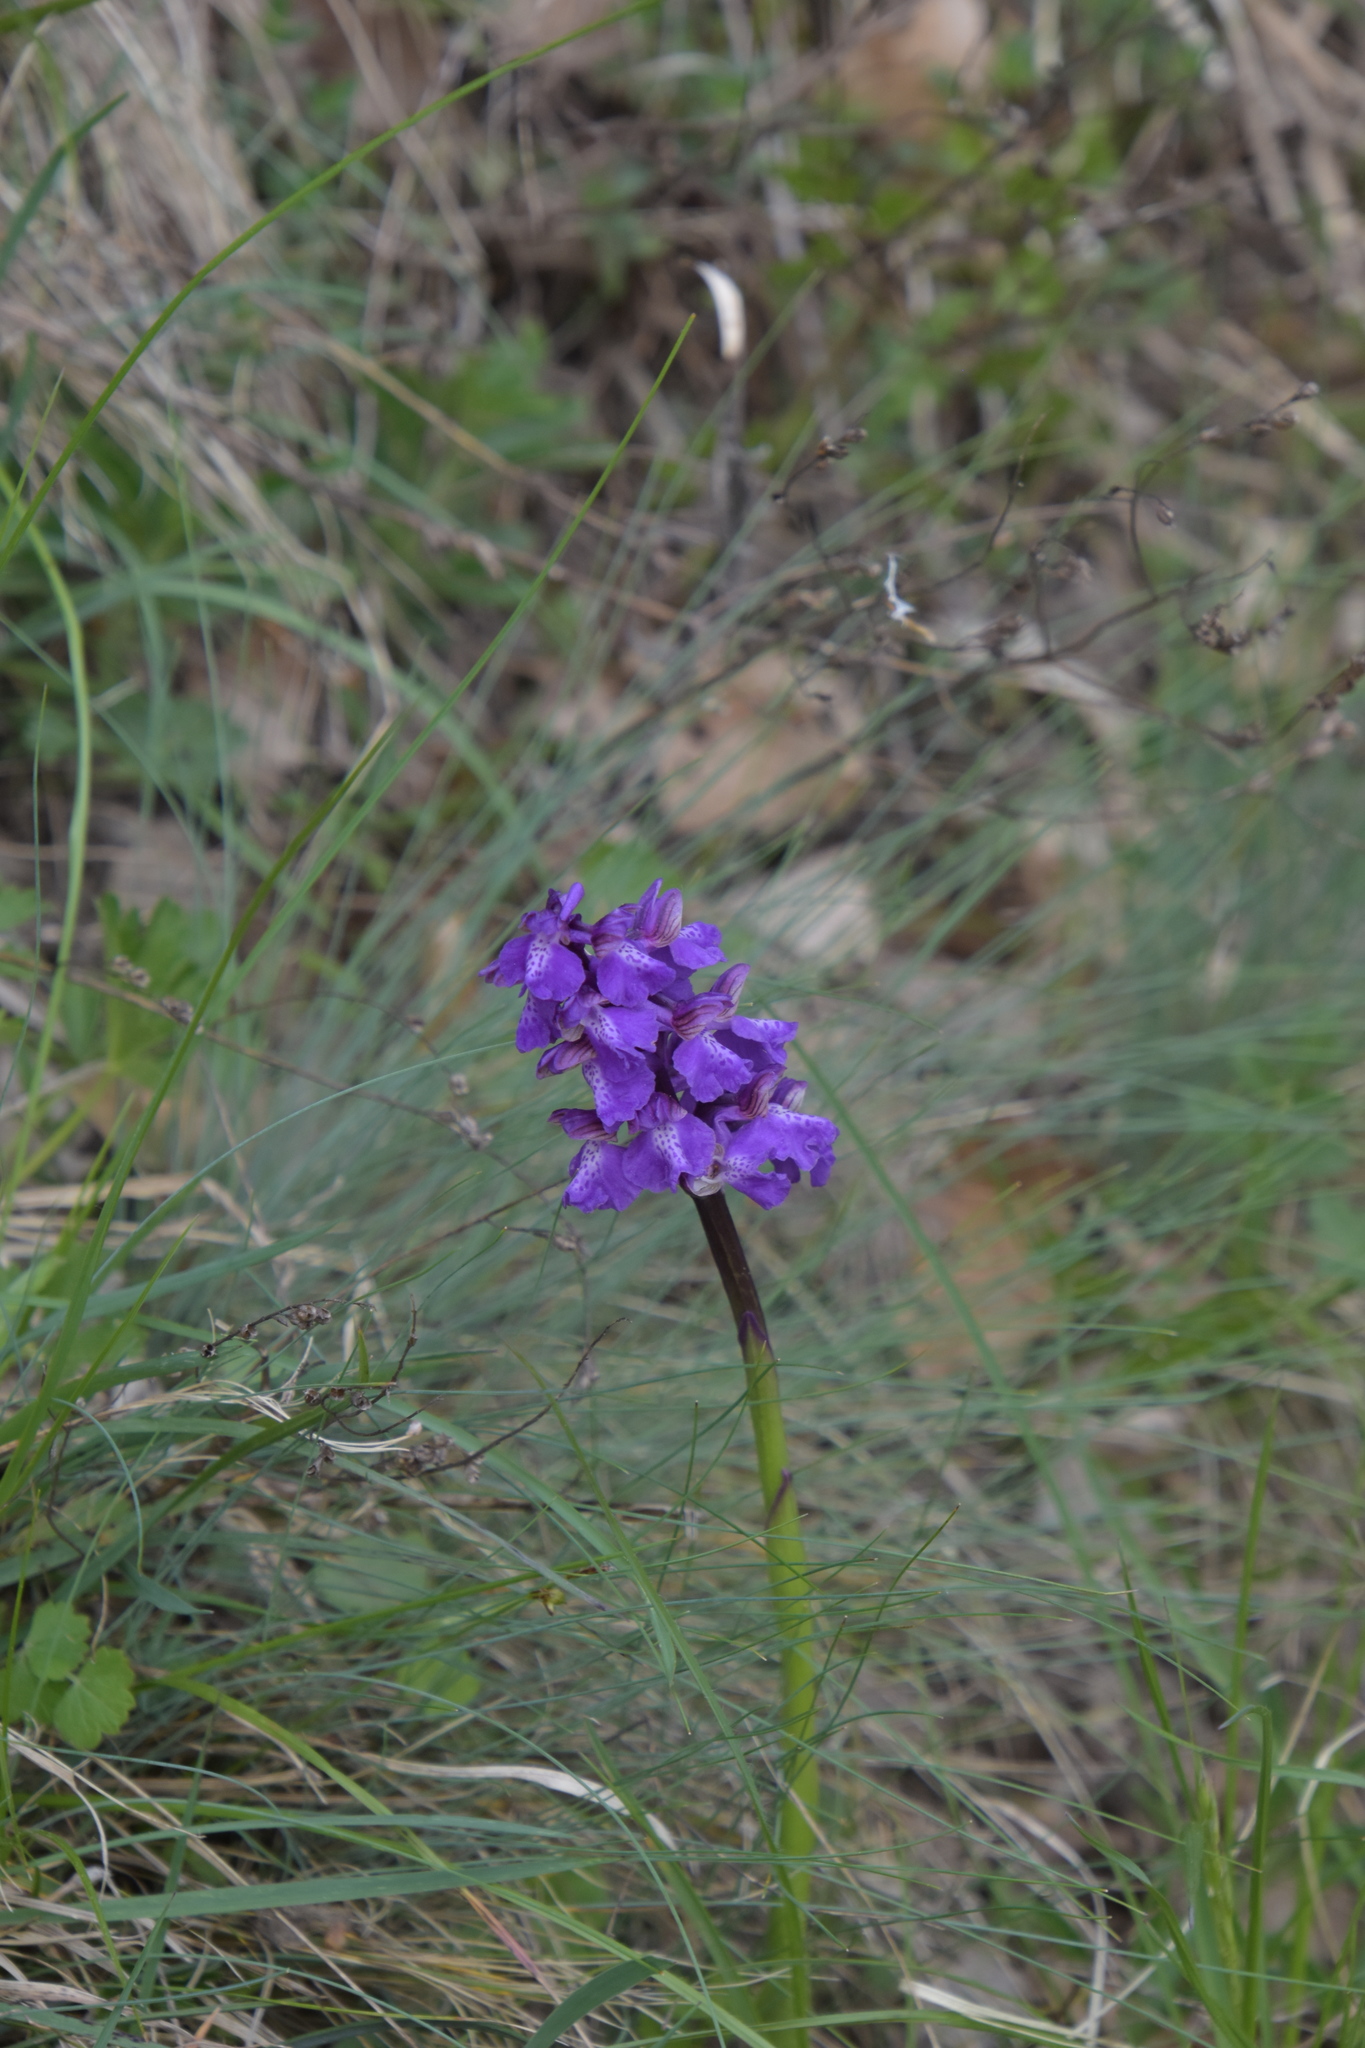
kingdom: Plantae
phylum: Tracheophyta
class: Liliopsida
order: Asparagales
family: Orchidaceae
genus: Anacamptis
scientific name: Anacamptis morio
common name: Green-winged orchid
